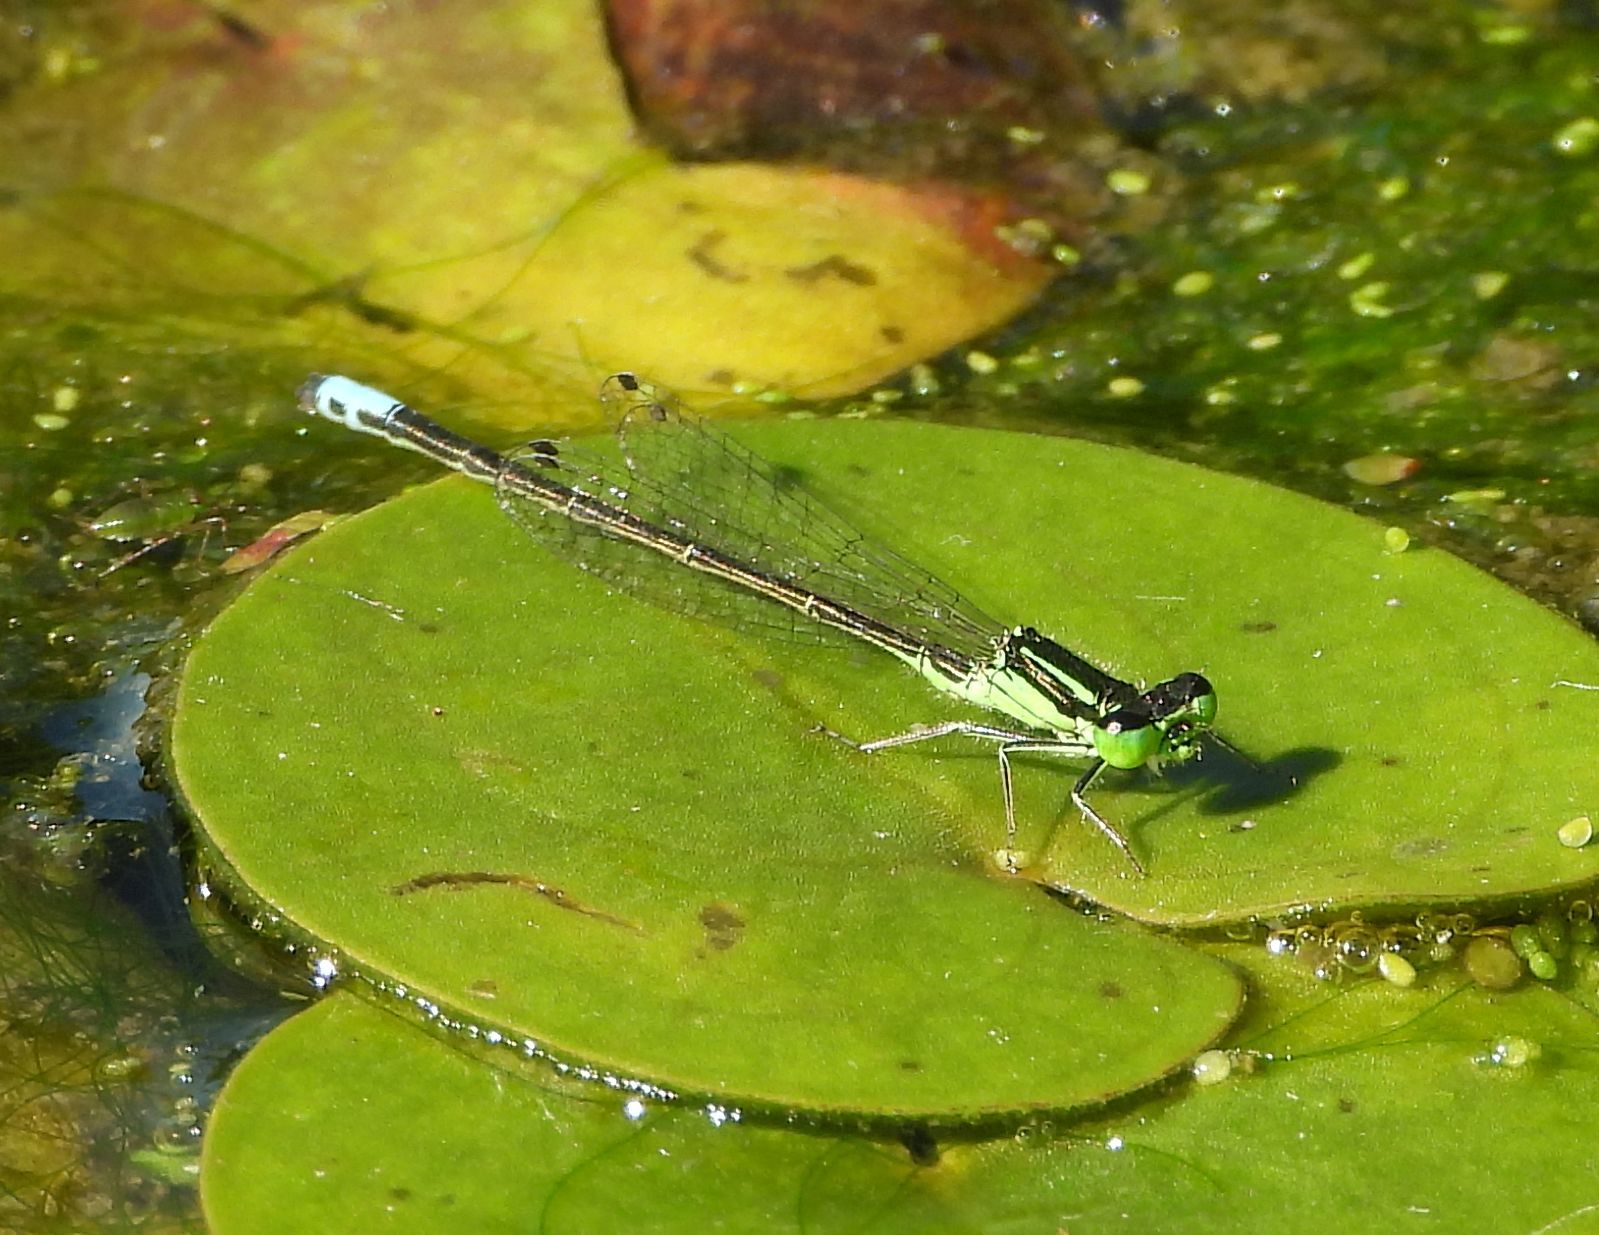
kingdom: Animalia
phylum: Arthropoda
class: Insecta
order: Odonata
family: Coenagrionidae
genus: Ischnura
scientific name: Ischnura verticalis
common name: Eastern forktail
